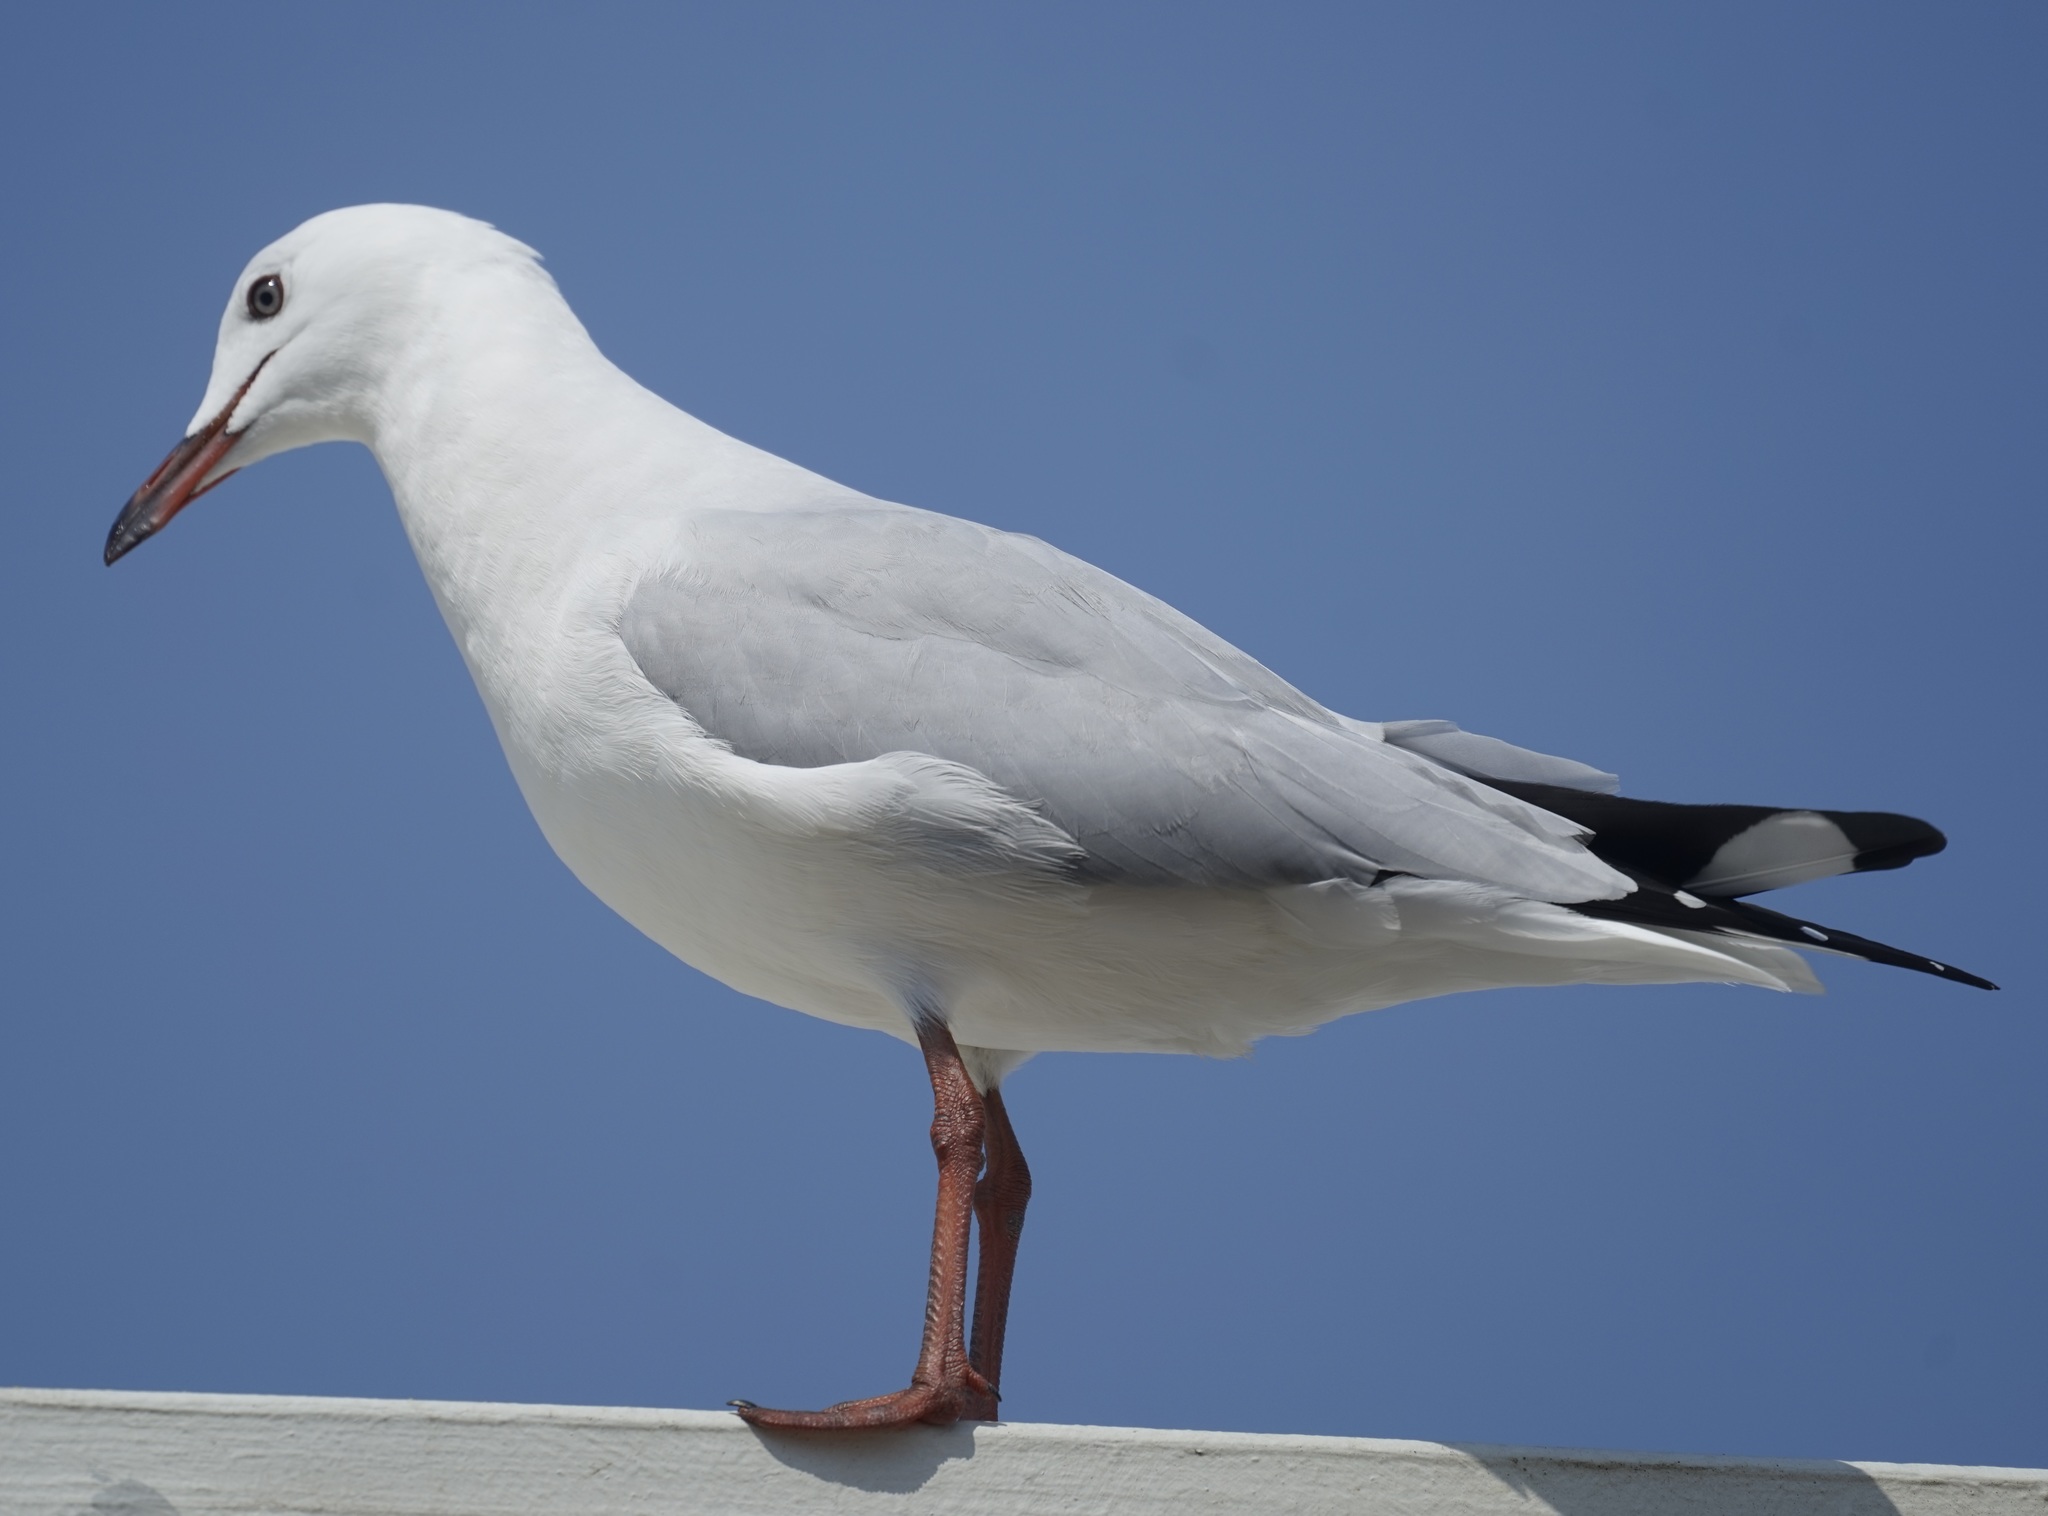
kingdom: Animalia
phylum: Chordata
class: Aves
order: Charadriiformes
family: Laridae
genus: Chroicocephalus
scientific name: Chroicocephalus novaehollandiae
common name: Silver gull
